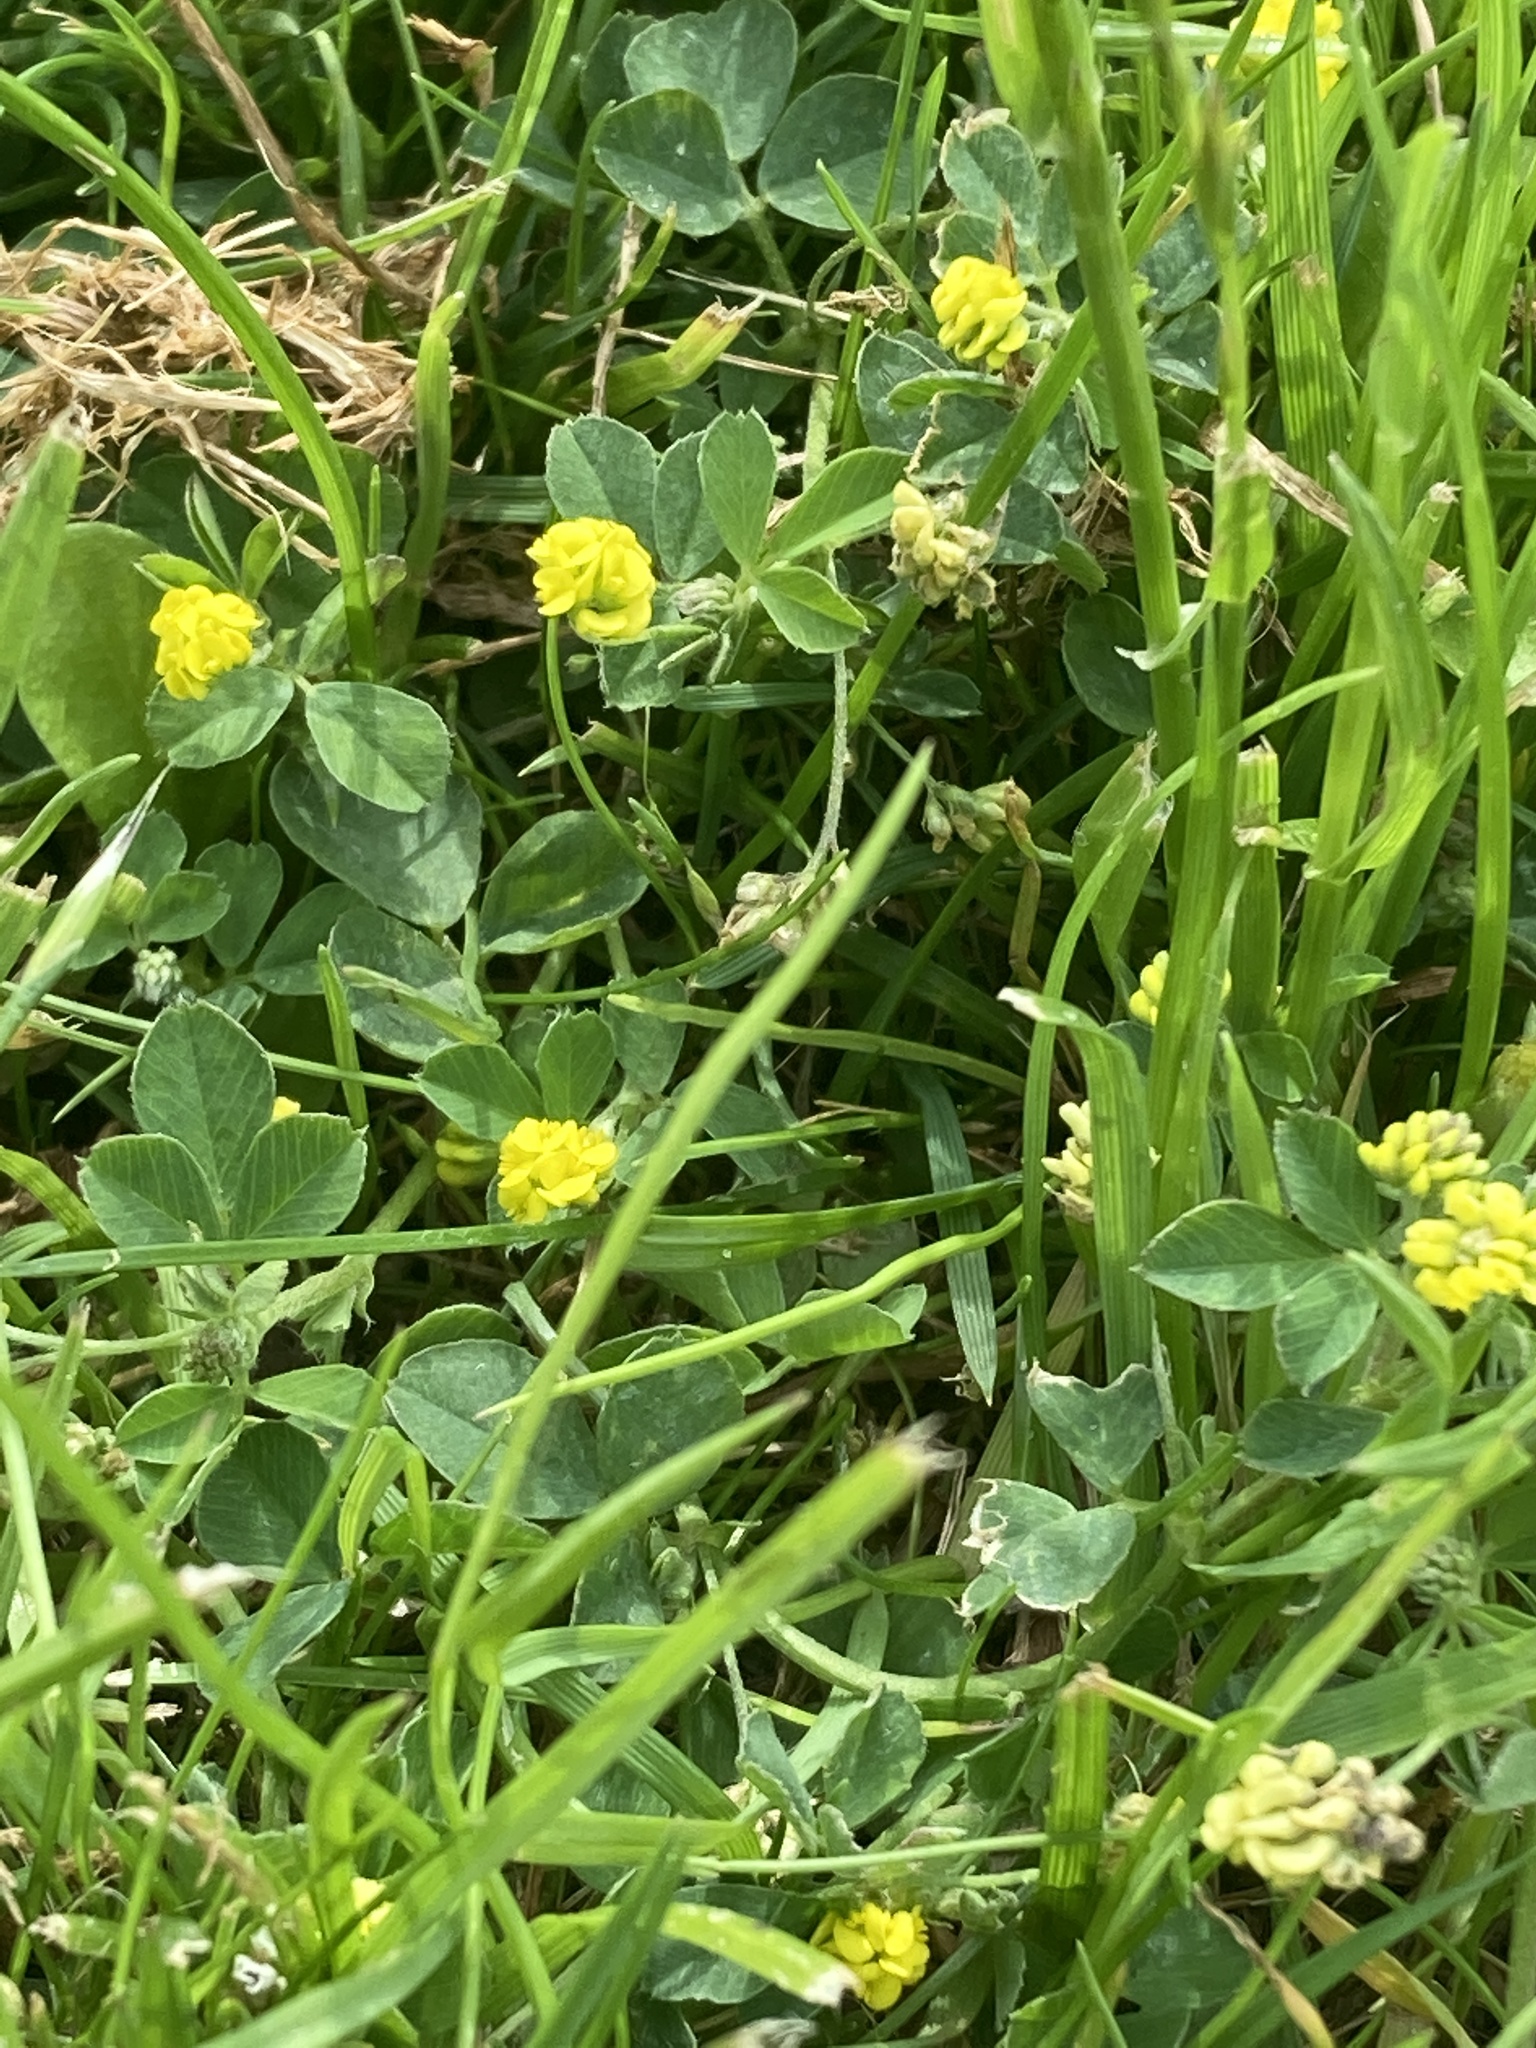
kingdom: Plantae
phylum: Tracheophyta
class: Magnoliopsida
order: Fabales
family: Fabaceae
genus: Medicago
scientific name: Medicago lupulina
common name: Black medick
